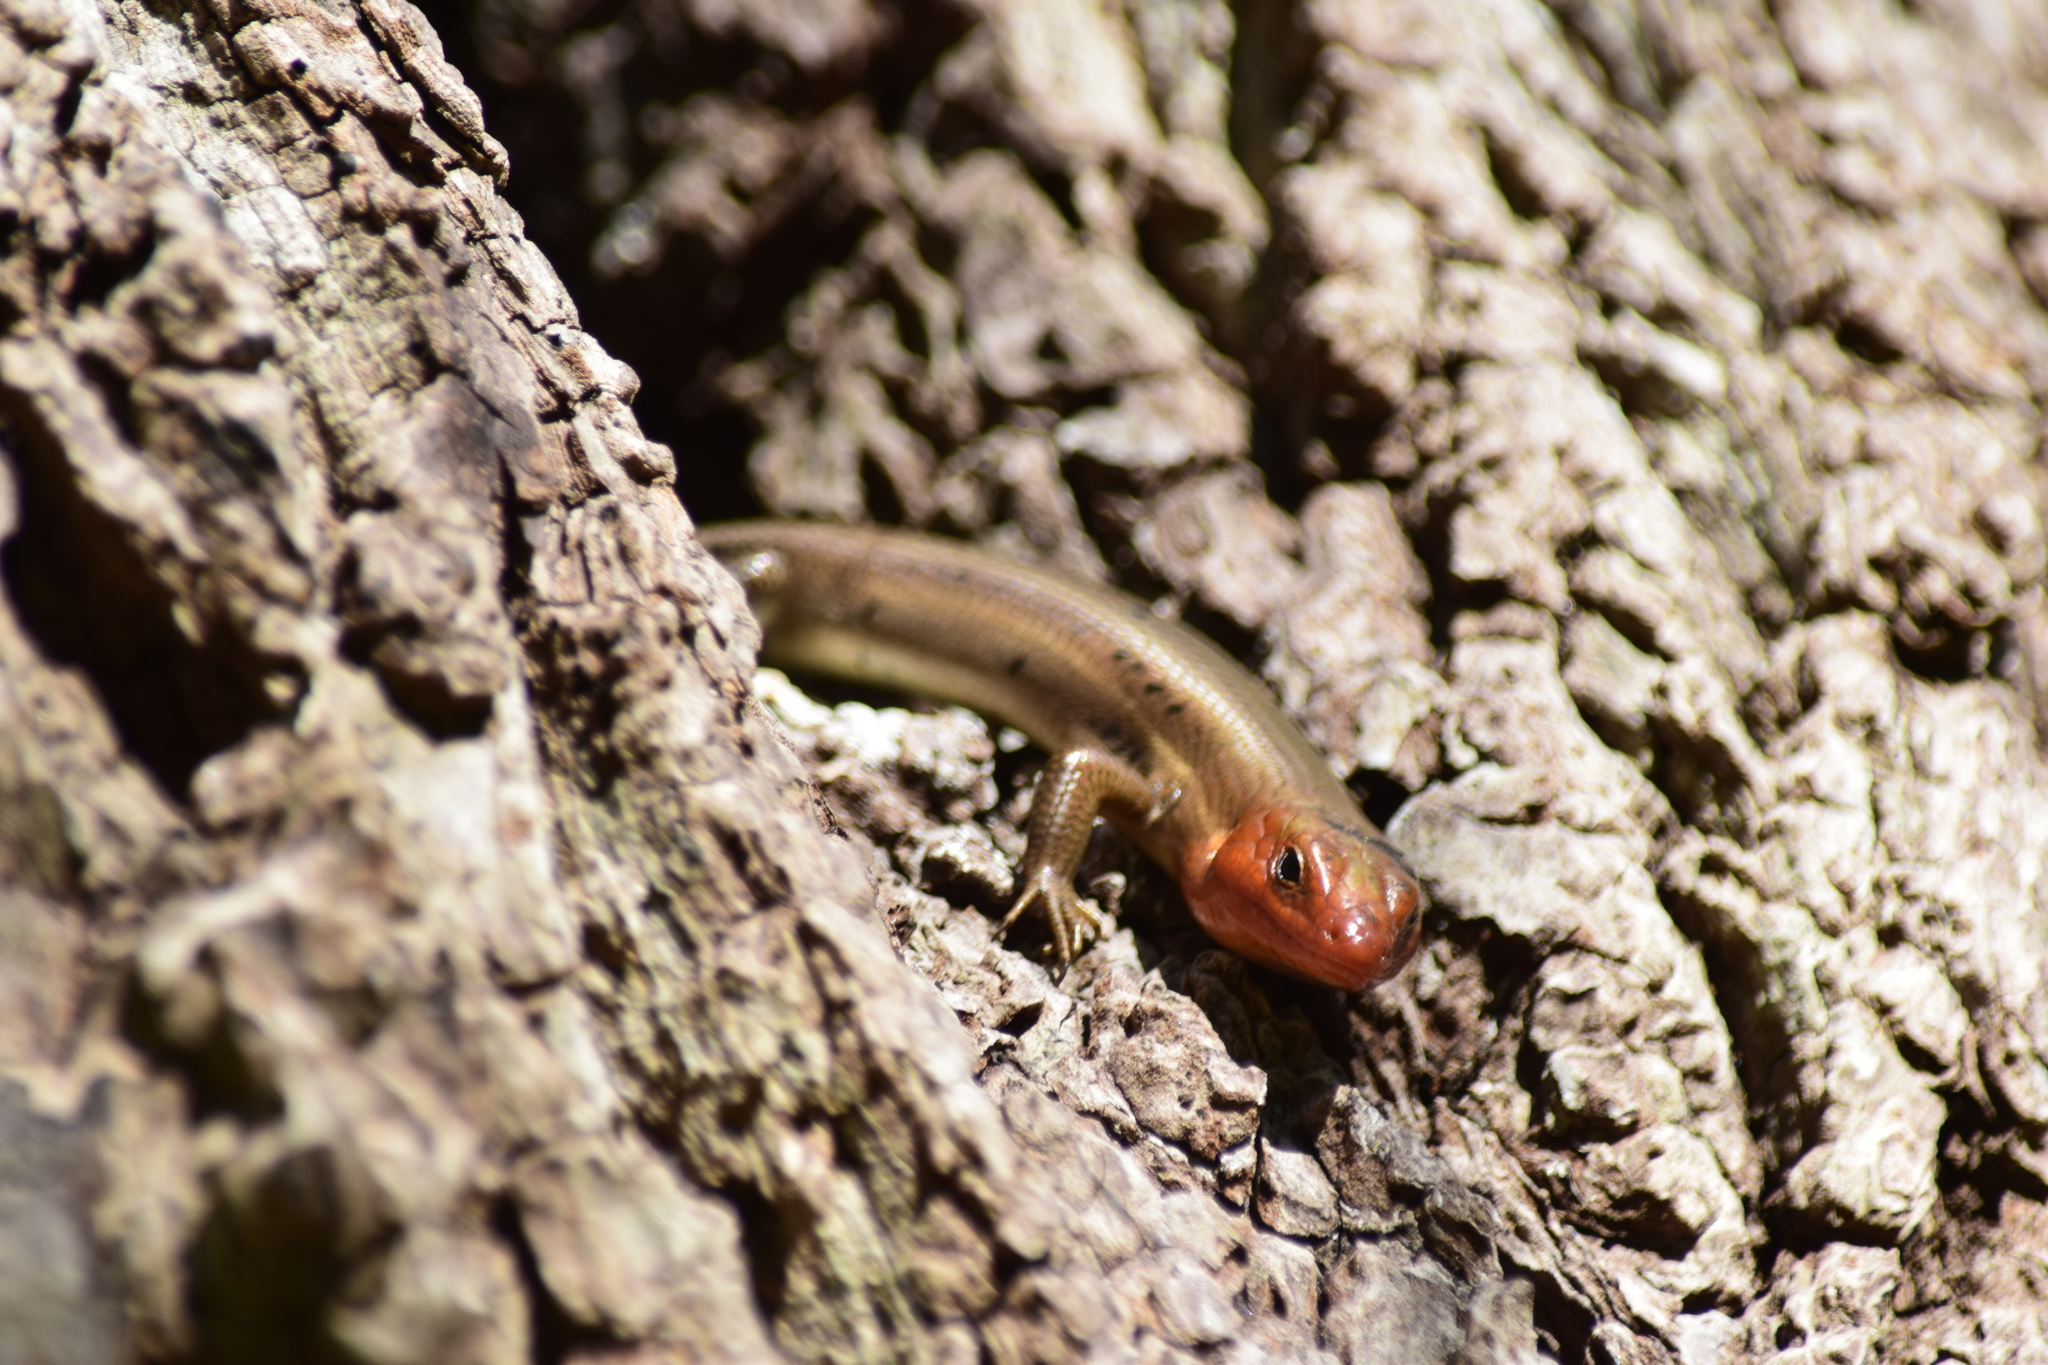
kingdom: Animalia
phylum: Chordata
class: Squamata
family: Scincidae
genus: Plestiodon
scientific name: Plestiodon fasciatus
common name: Five-lined skink
